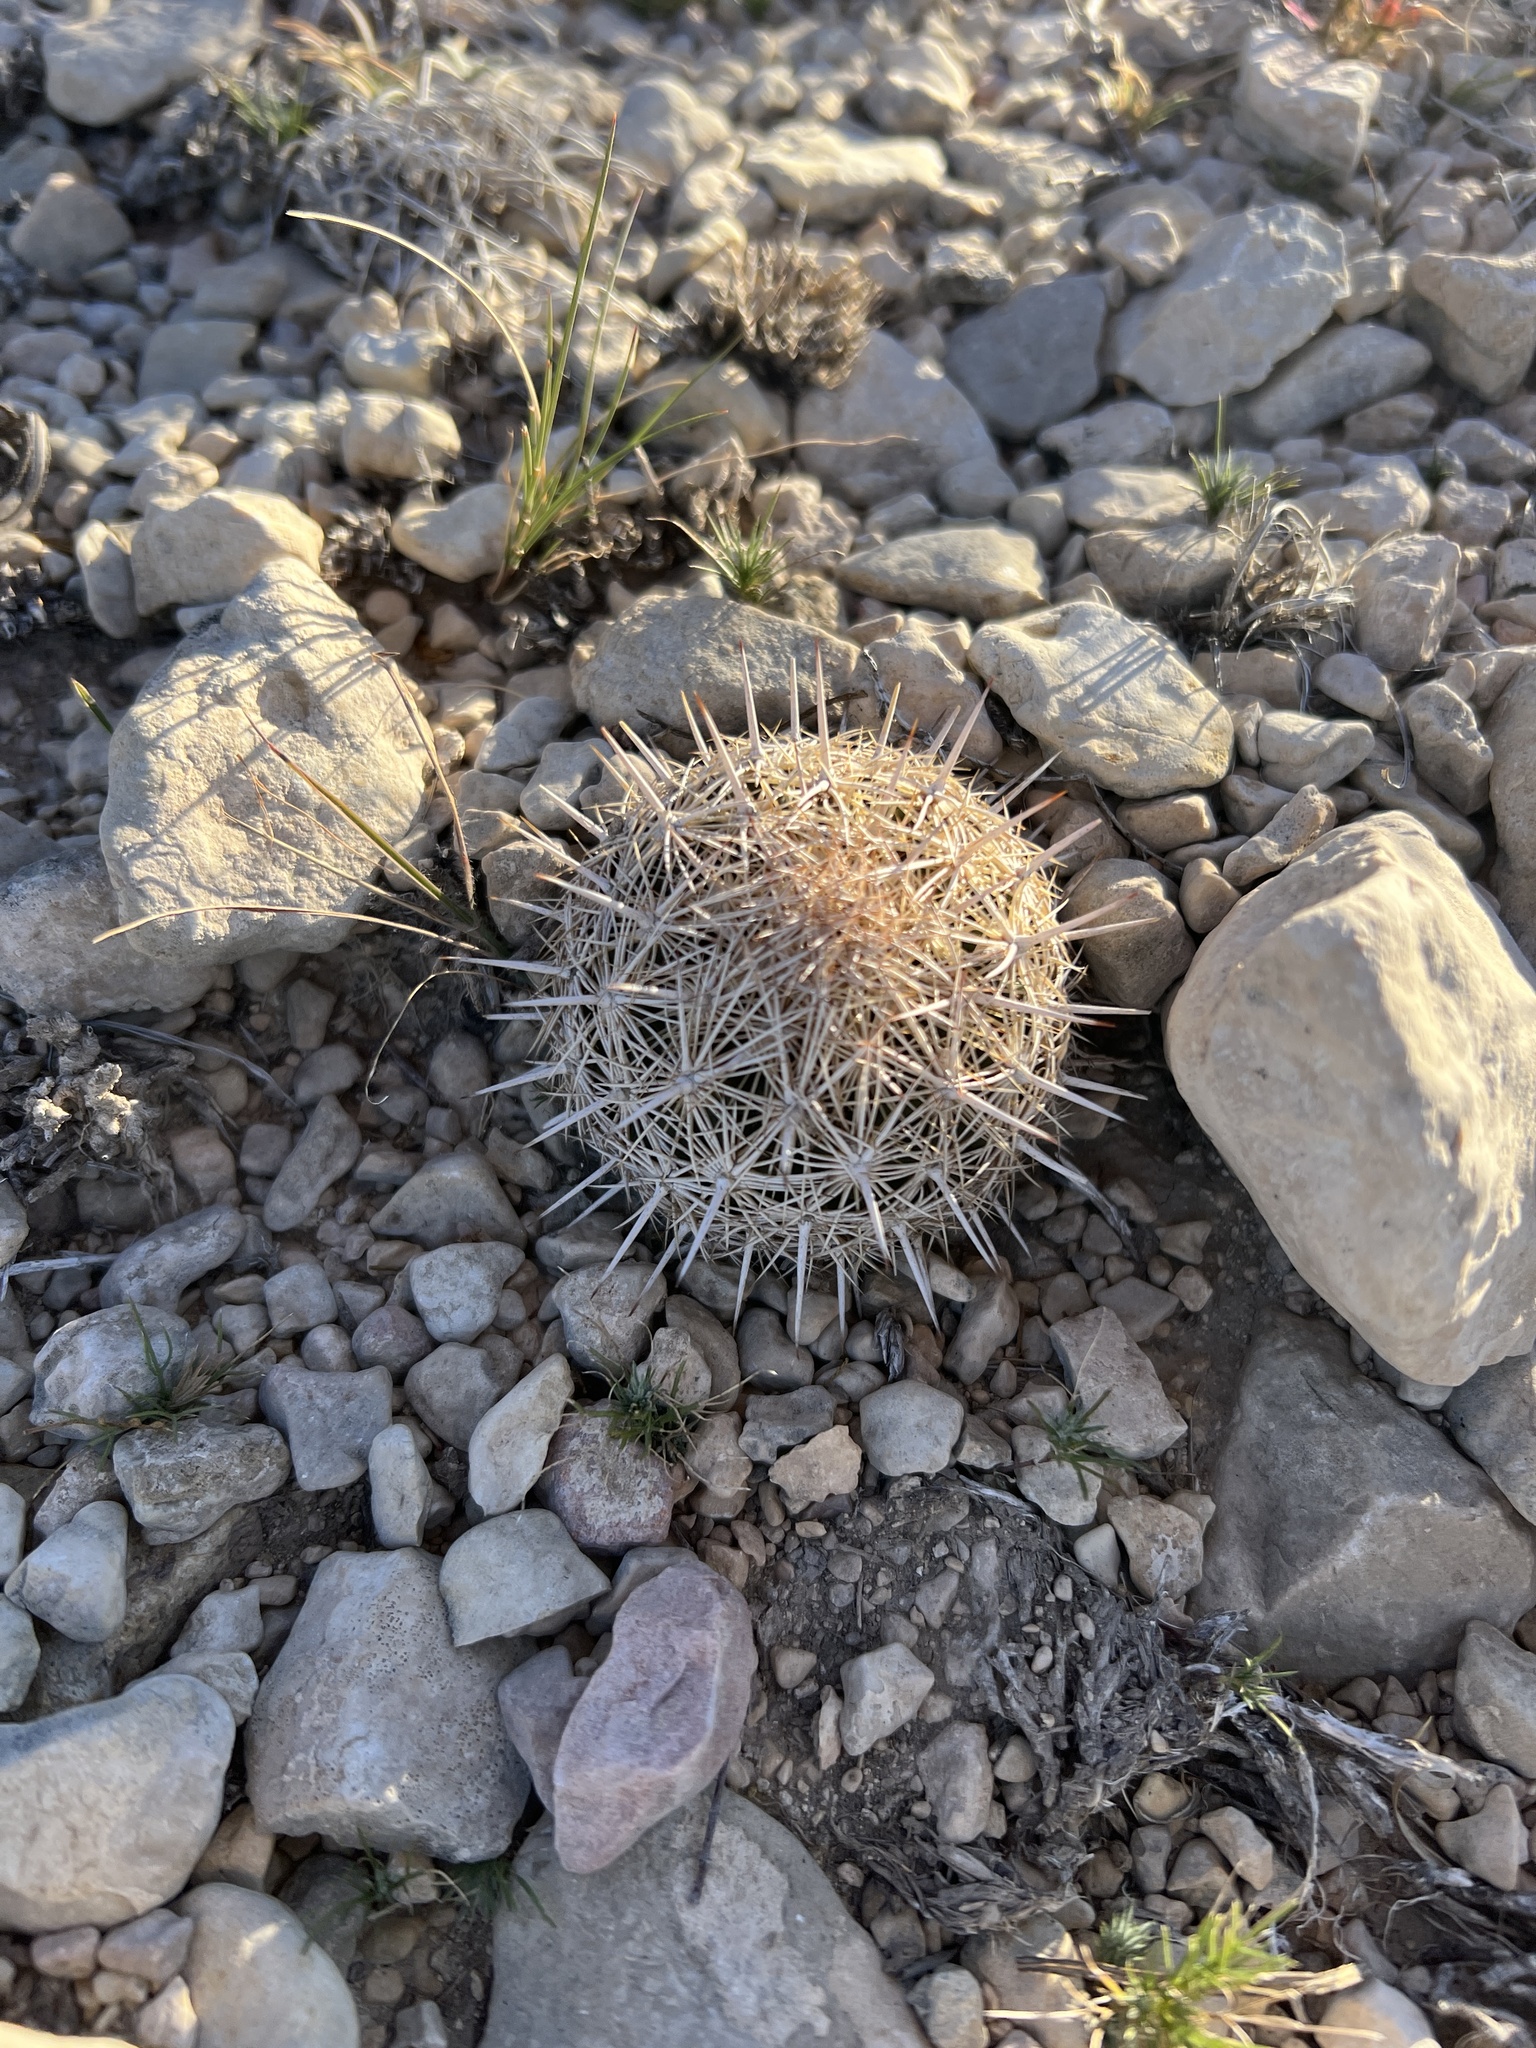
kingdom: Plantae
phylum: Tracheophyta
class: Magnoliopsida
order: Caryophyllales
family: Cactaceae
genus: Coryphantha
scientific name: Coryphantha echinus
